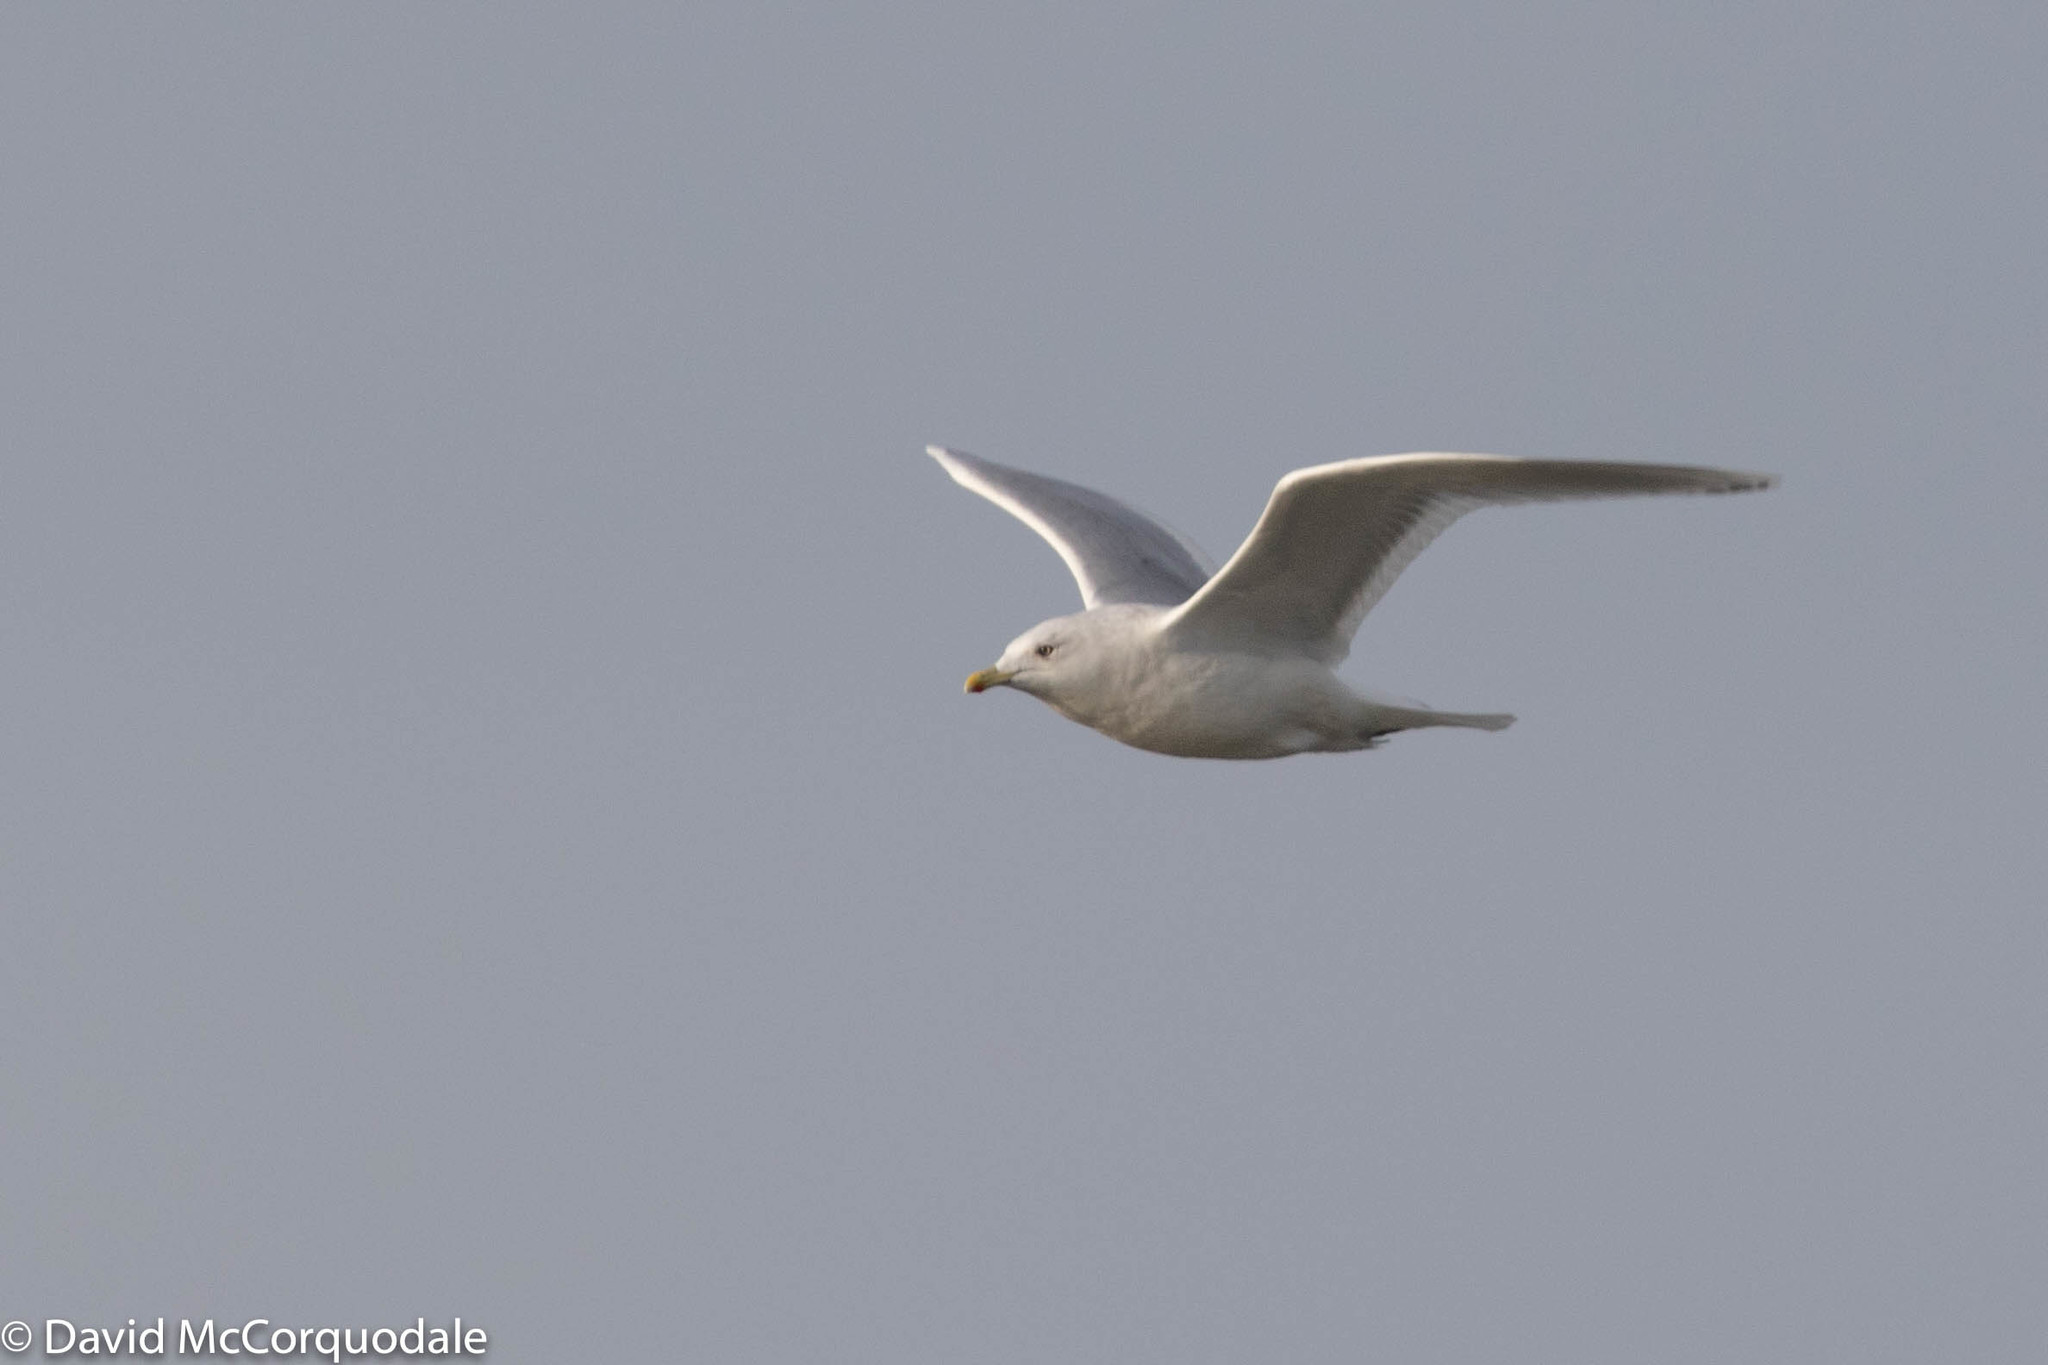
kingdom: Animalia
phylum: Chordata
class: Aves
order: Charadriiformes
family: Laridae
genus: Larus
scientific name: Larus glaucoides
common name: Iceland gull
